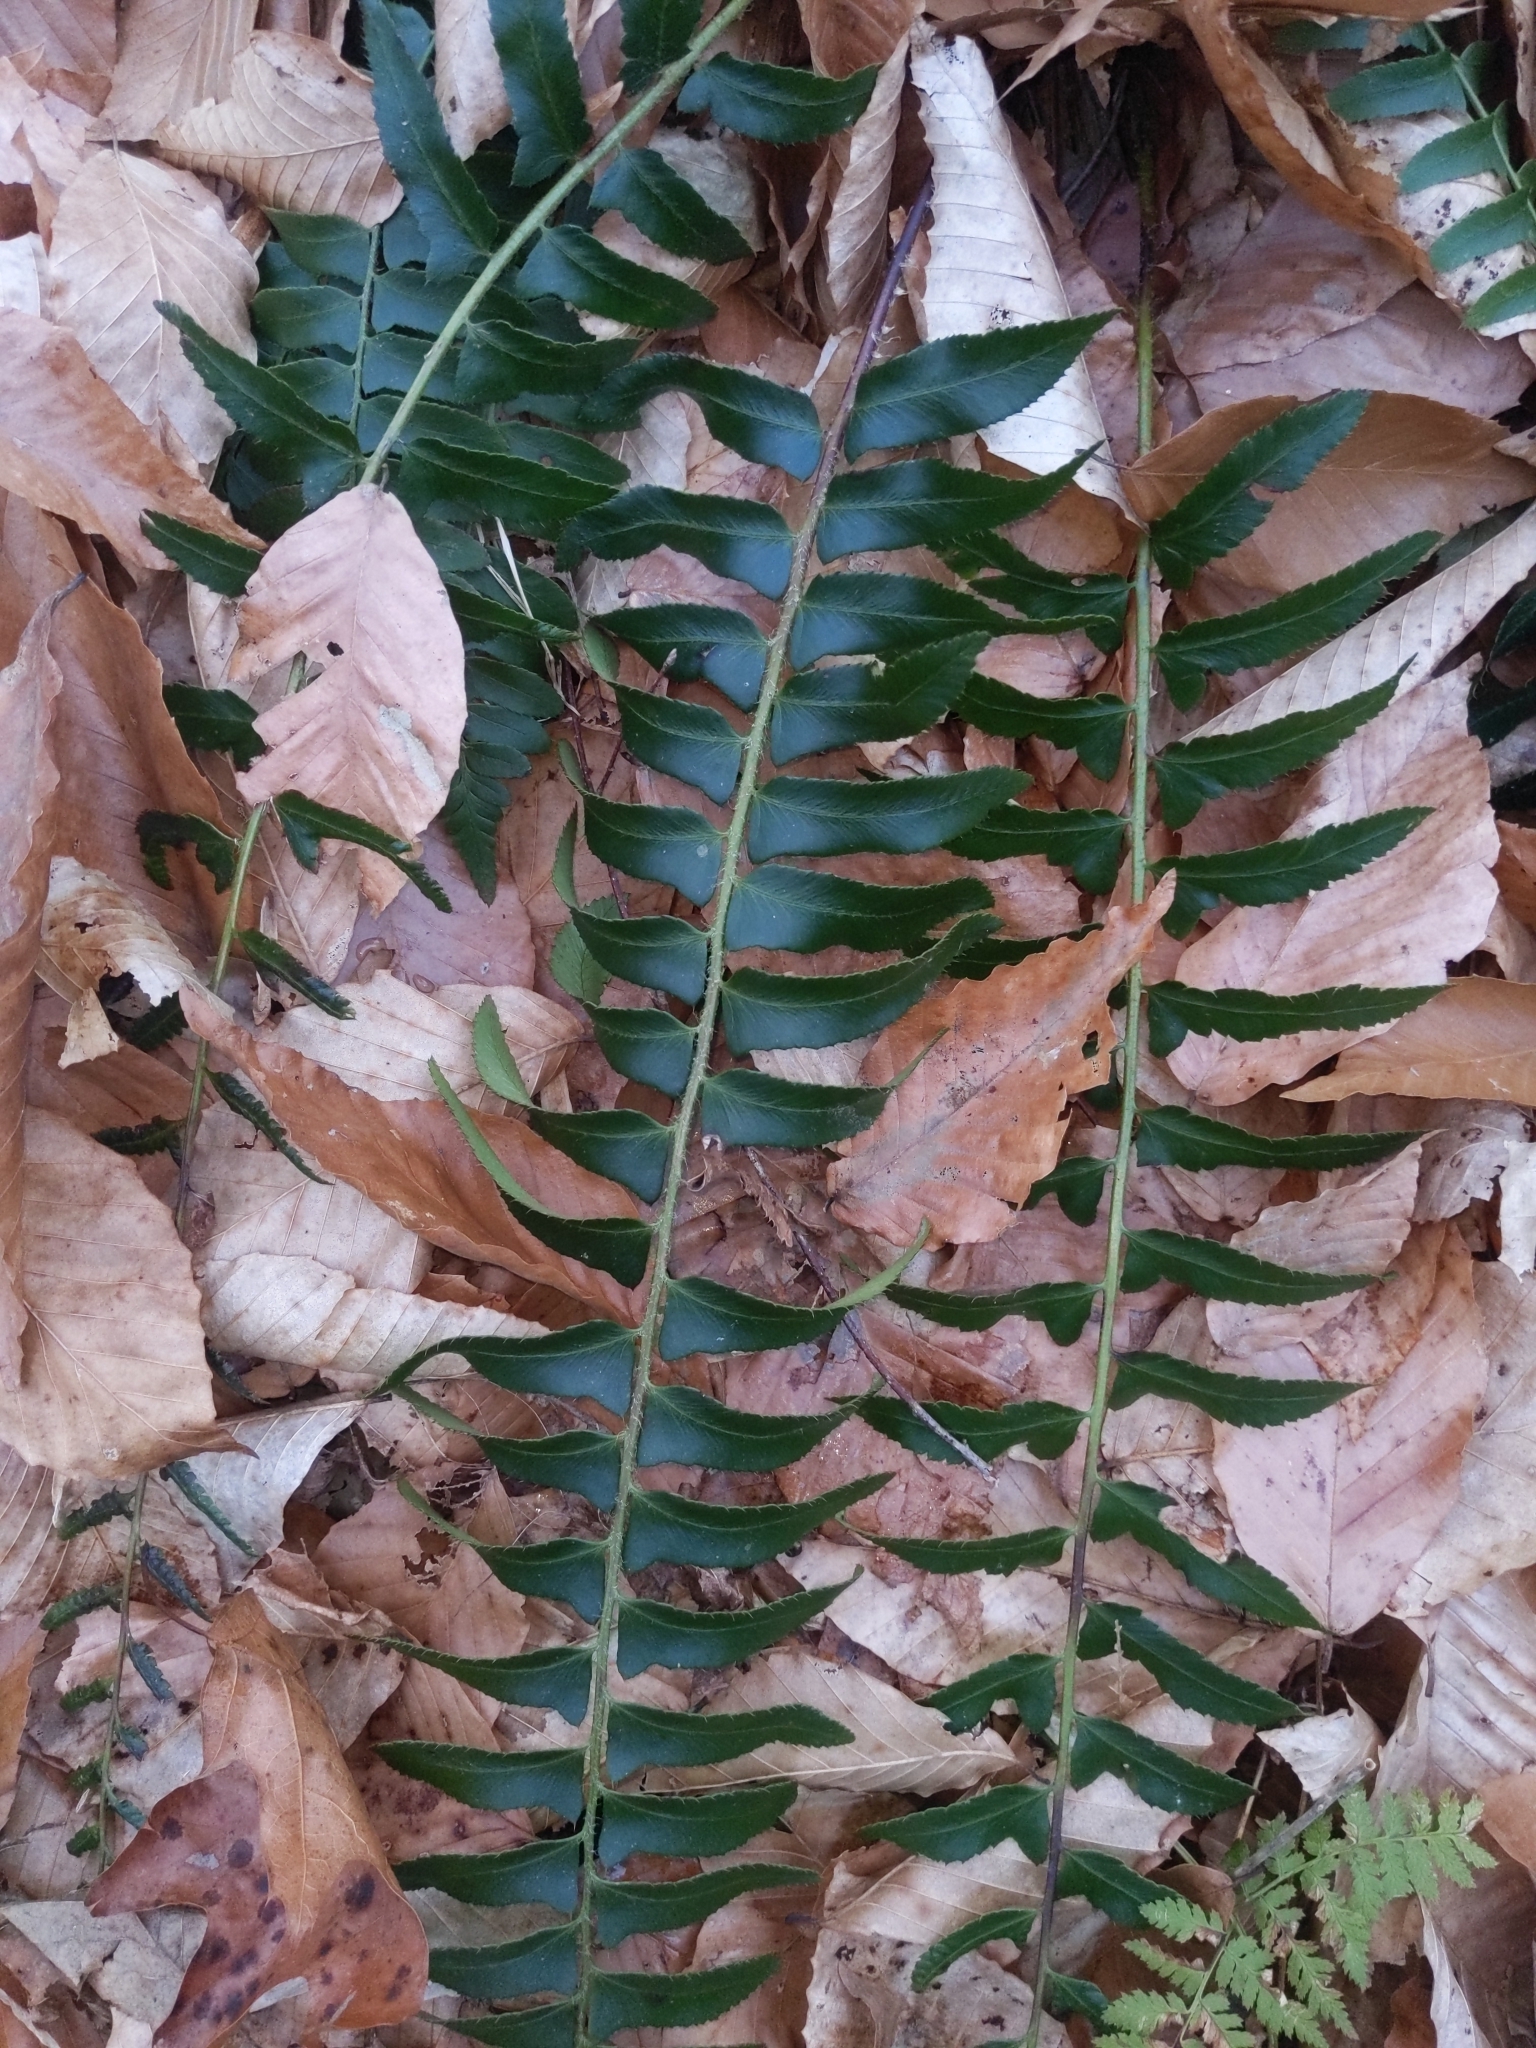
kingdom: Plantae
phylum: Tracheophyta
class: Polypodiopsida
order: Polypodiales
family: Dryopteridaceae
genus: Polystichum
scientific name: Polystichum acrostichoides
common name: Christmas fern
